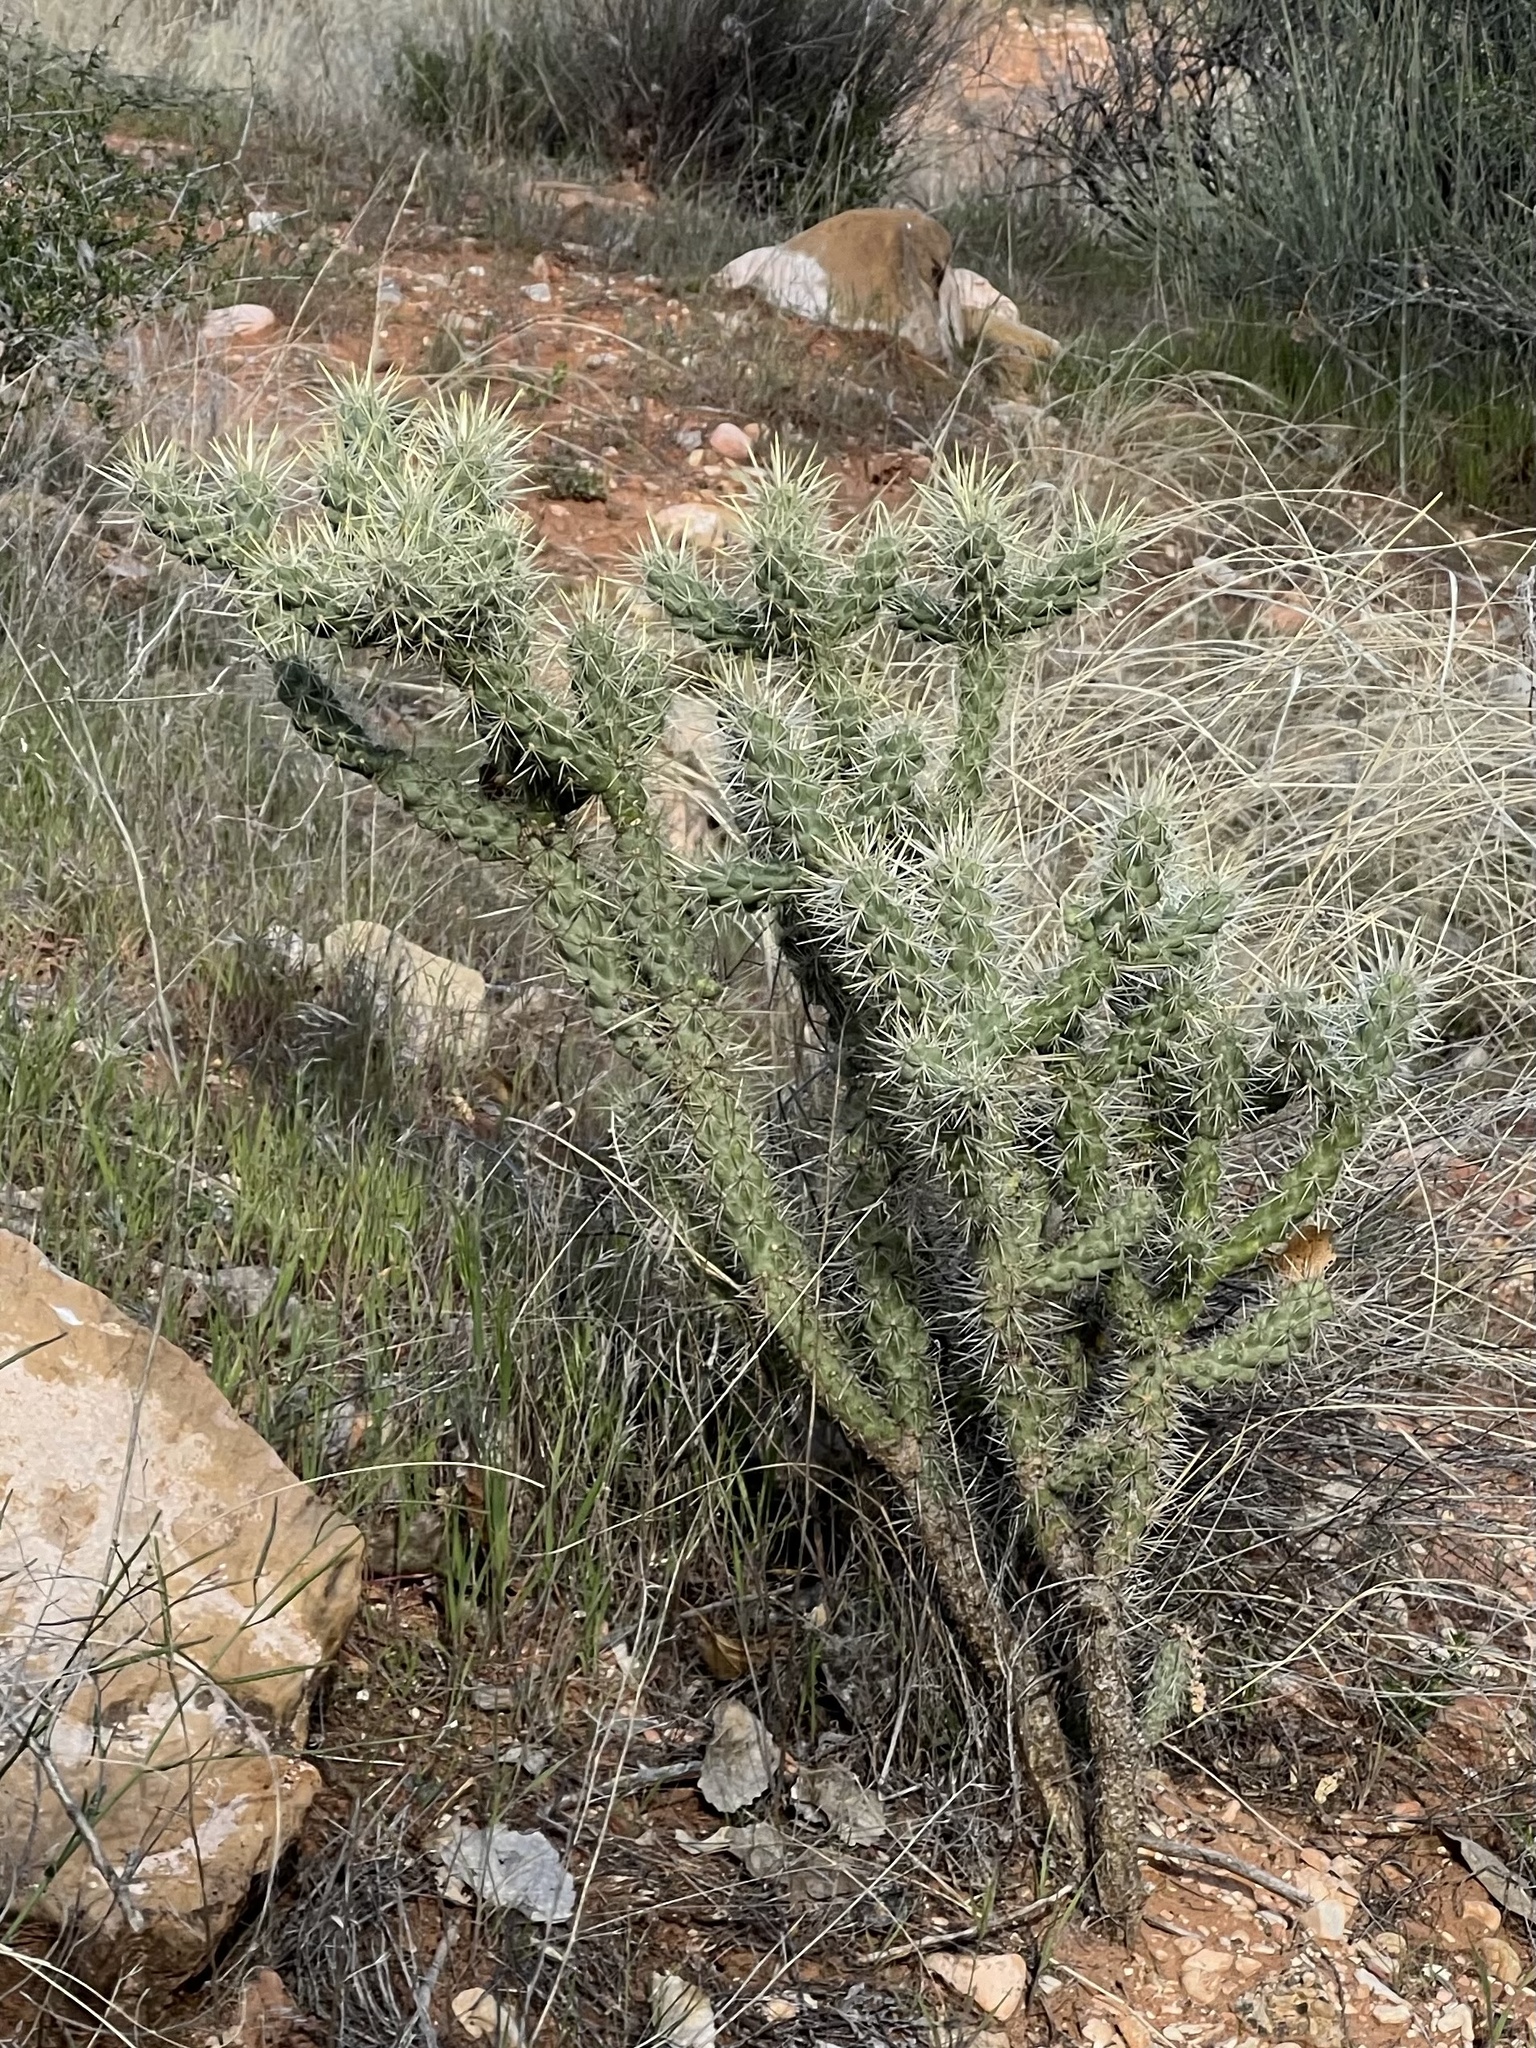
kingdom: Plantae
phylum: Tracheophyta
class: Magnoliopsida
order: Caryophyllales
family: Cactaceae
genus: Cylindropuntia
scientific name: Cylindropuntia echinocarpa
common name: Ground cholla
